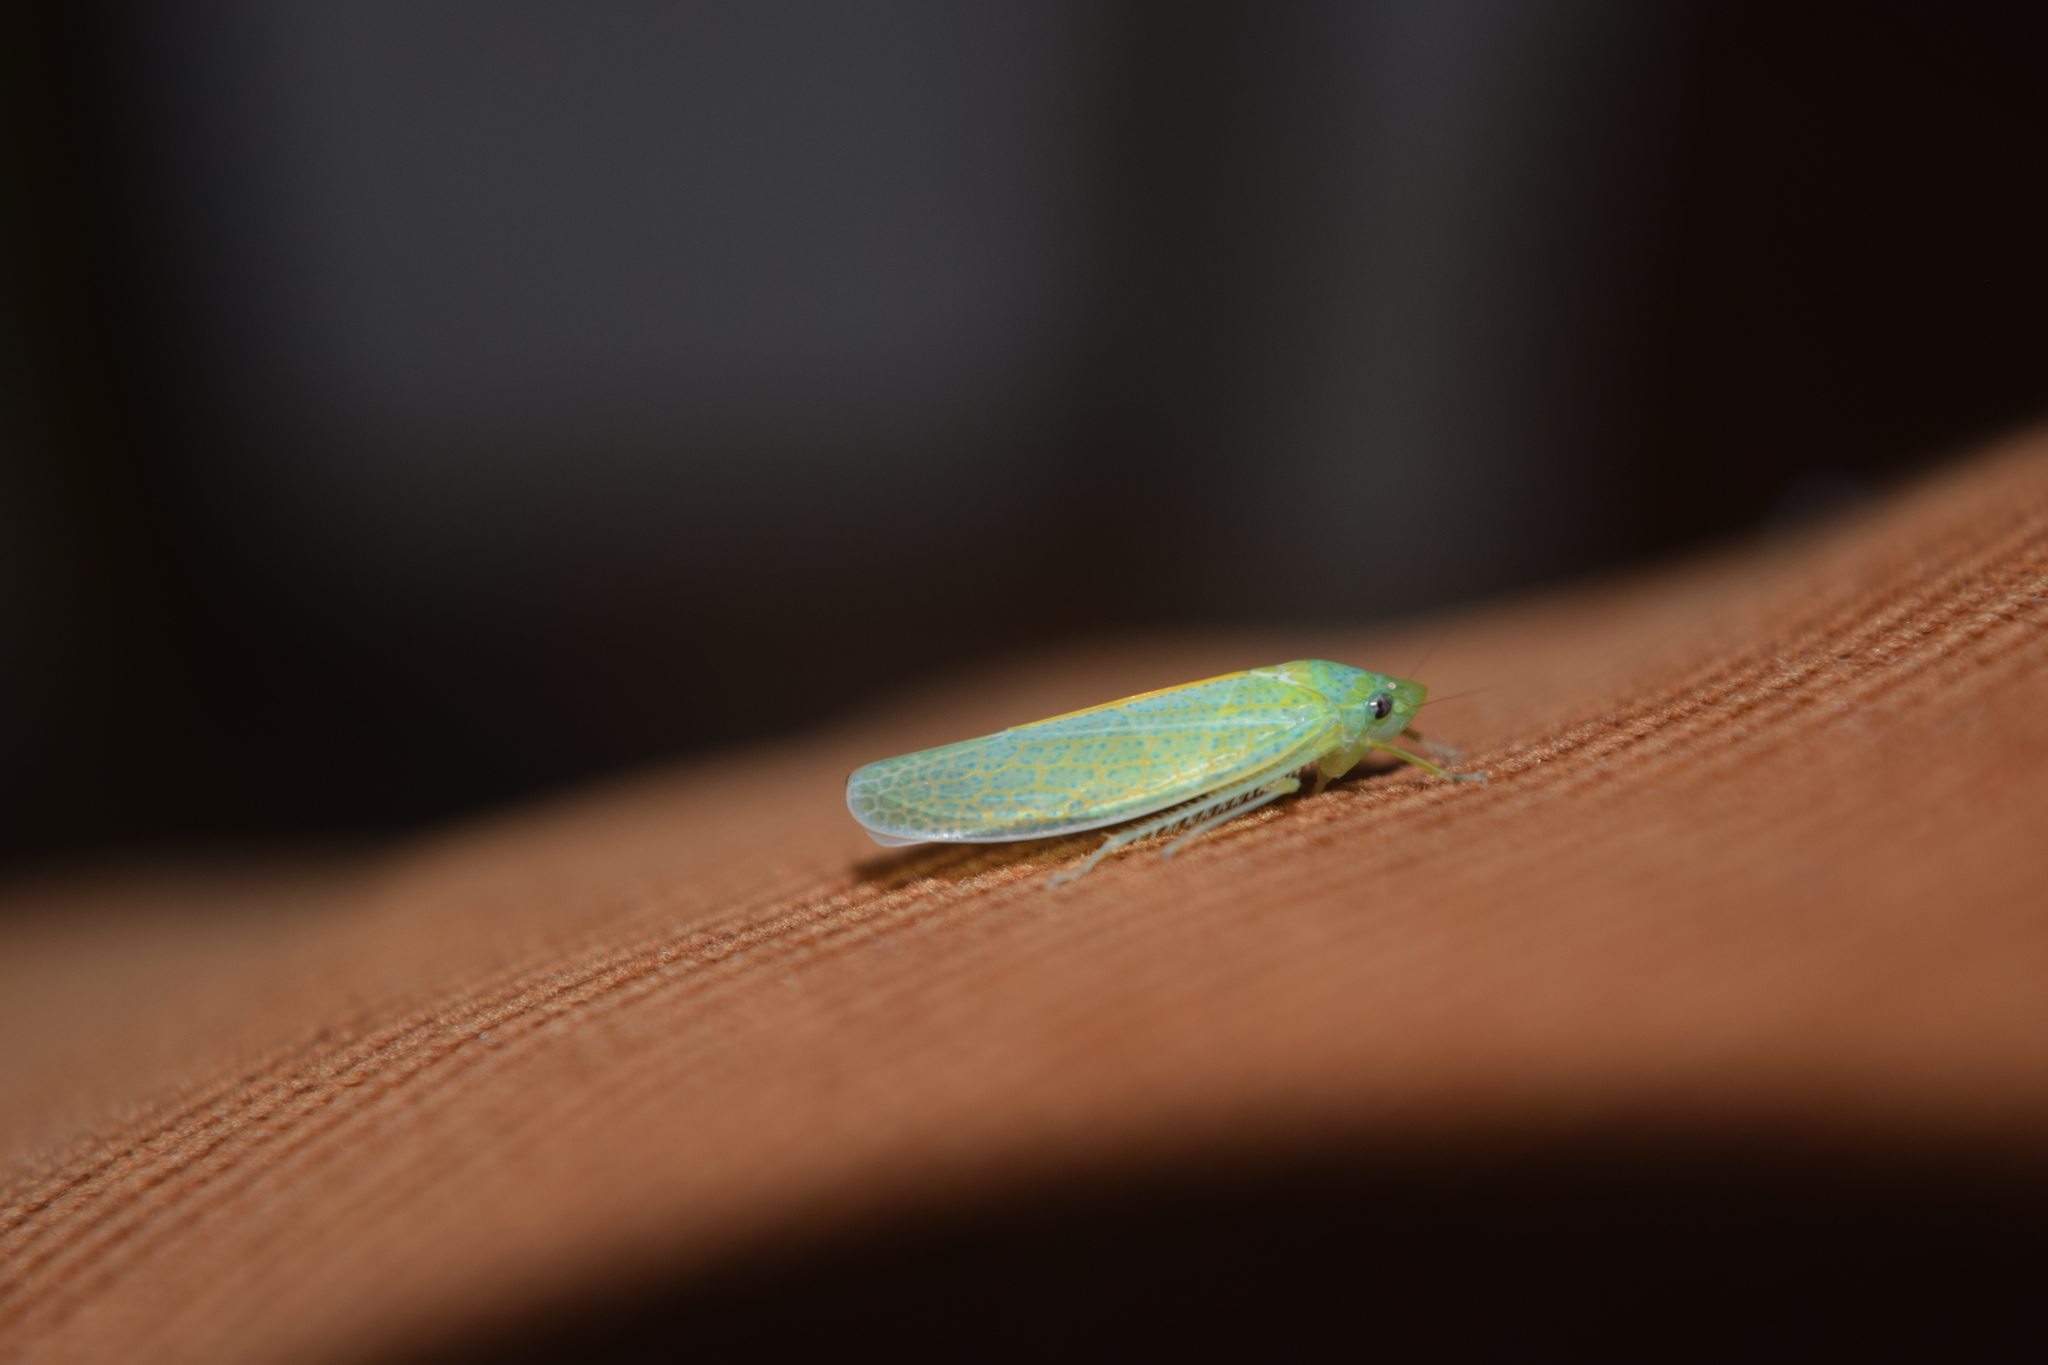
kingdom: Animalia
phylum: Arthropoda
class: Insecta
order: Hemiptera
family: Cicadellidae
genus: Onega
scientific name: Onega bracteata
